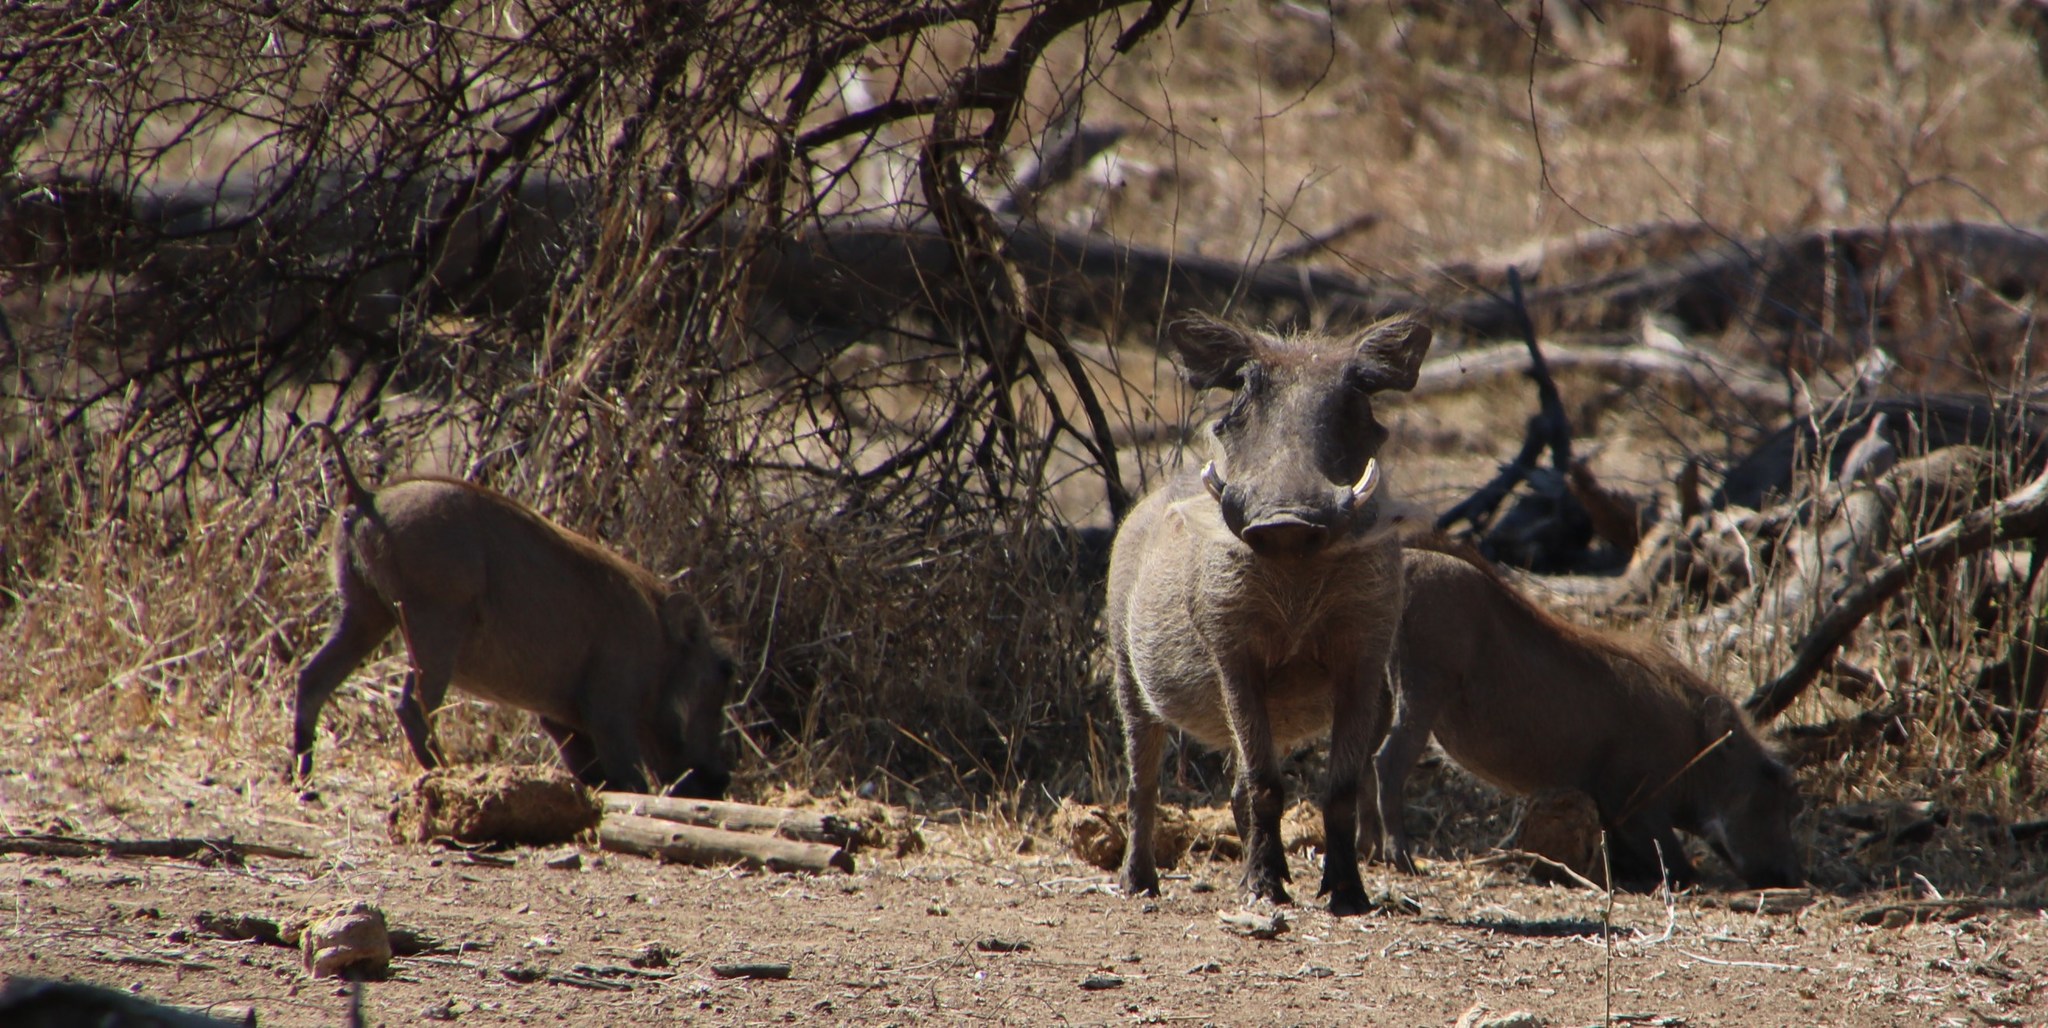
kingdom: Animalia
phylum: Chordata
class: Mammalia
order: Artiodactyla
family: Suidae
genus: Phacochoerus
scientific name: Phacochoerus africanus
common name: Common warthog
